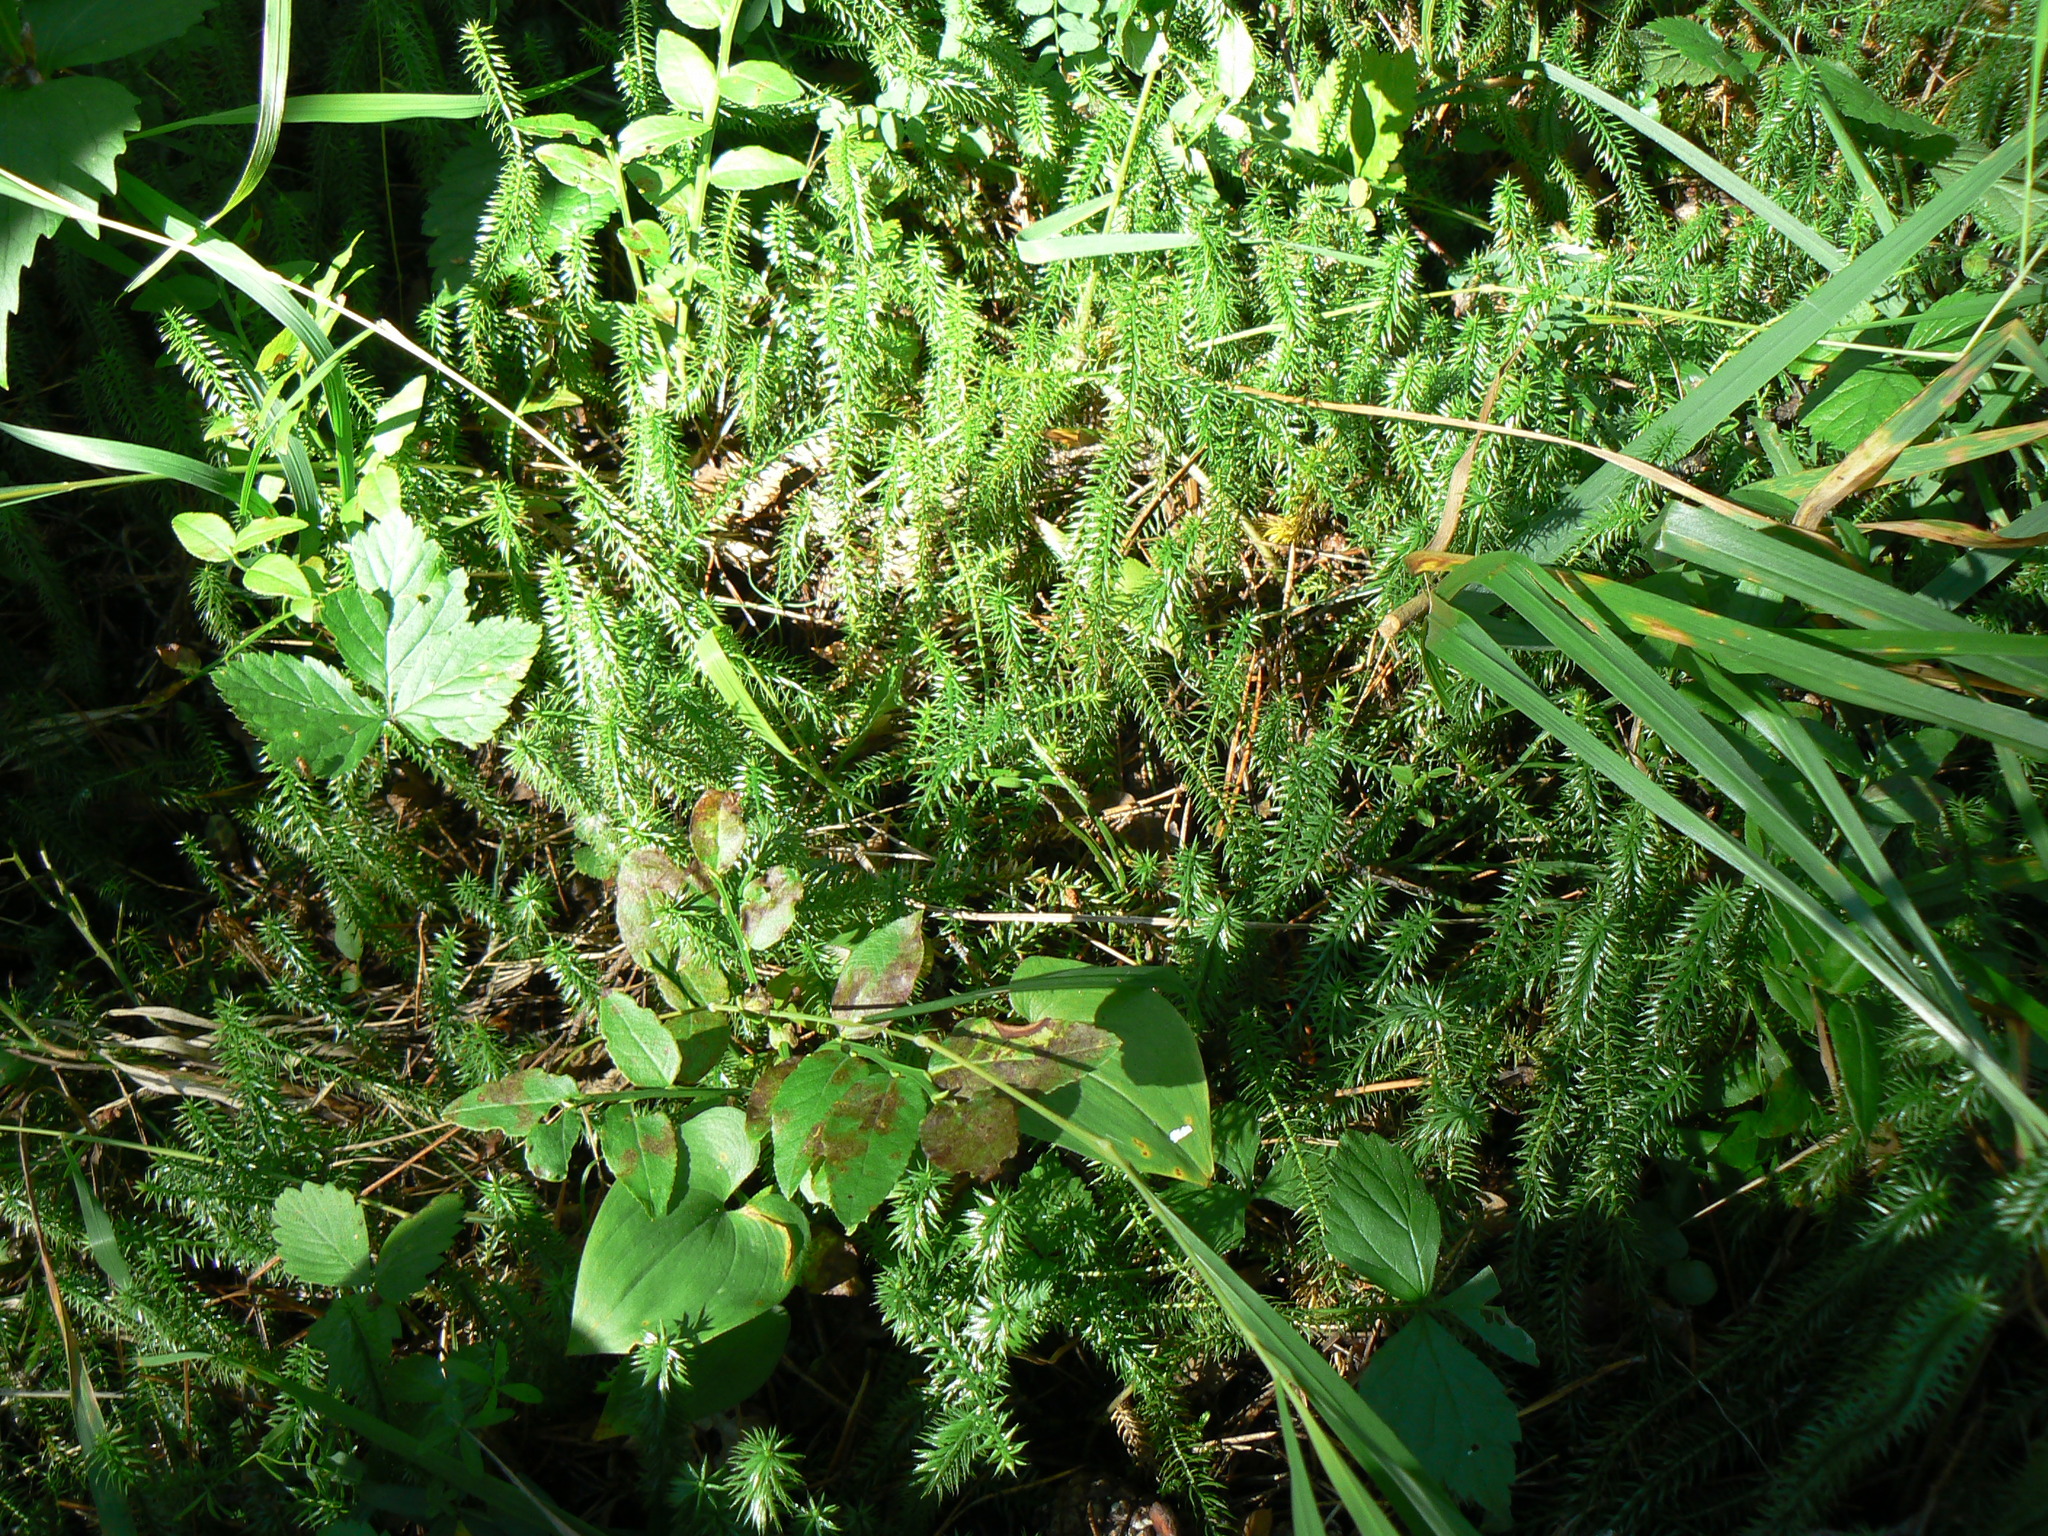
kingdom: Plantae
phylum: Tracheophyta
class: Lycopodiopsida
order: Lycopodiales
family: Lycopodiaceae
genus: Spinulum
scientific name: Spinulum annotinum
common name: Interrupted club-moss
